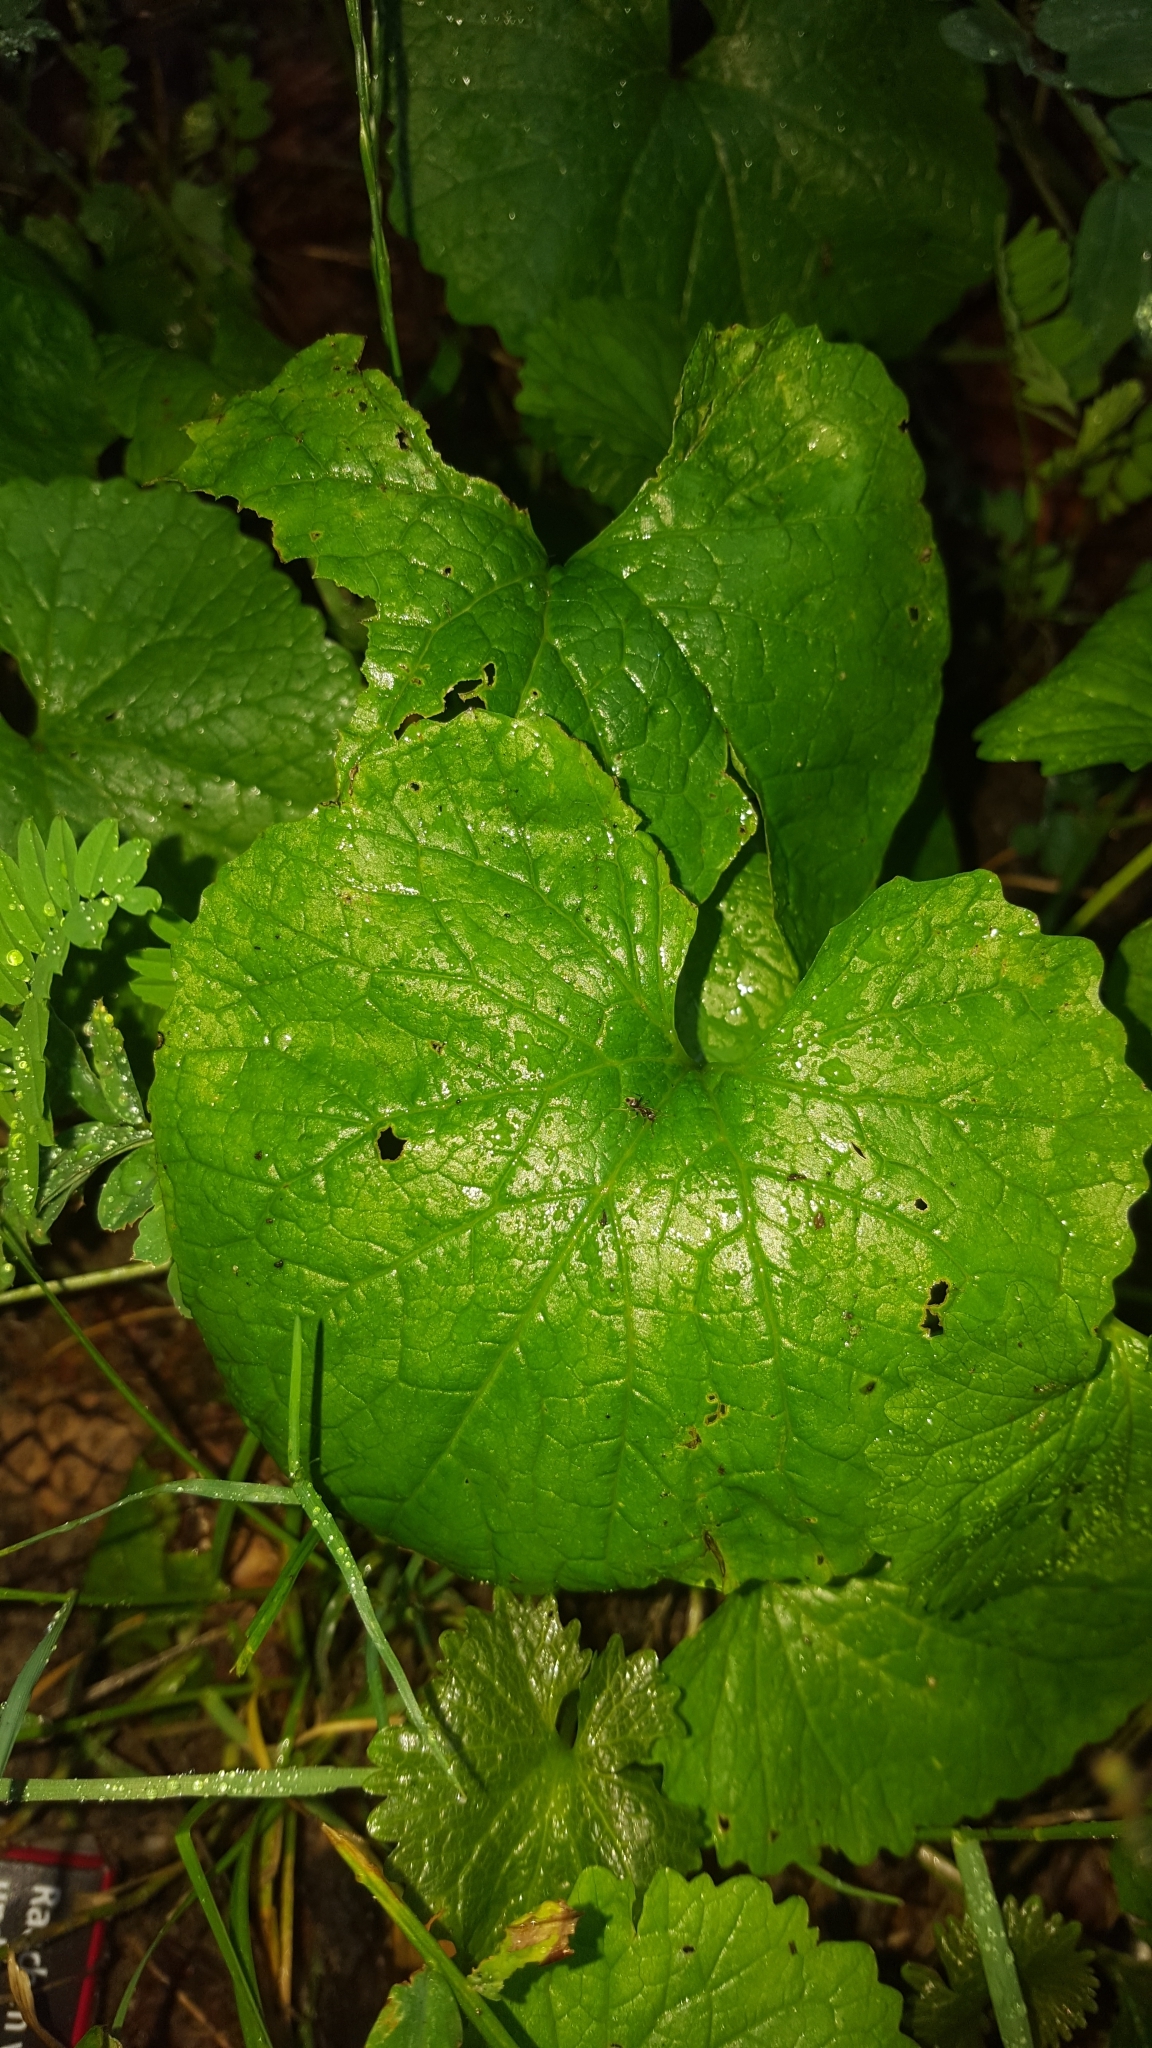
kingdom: Plantae
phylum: Tracheophyta
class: Magnoliopsida
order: Brassicales
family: Brassicaceae
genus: Alliaria
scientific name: Alliaria petiolata
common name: Garlic mustard
